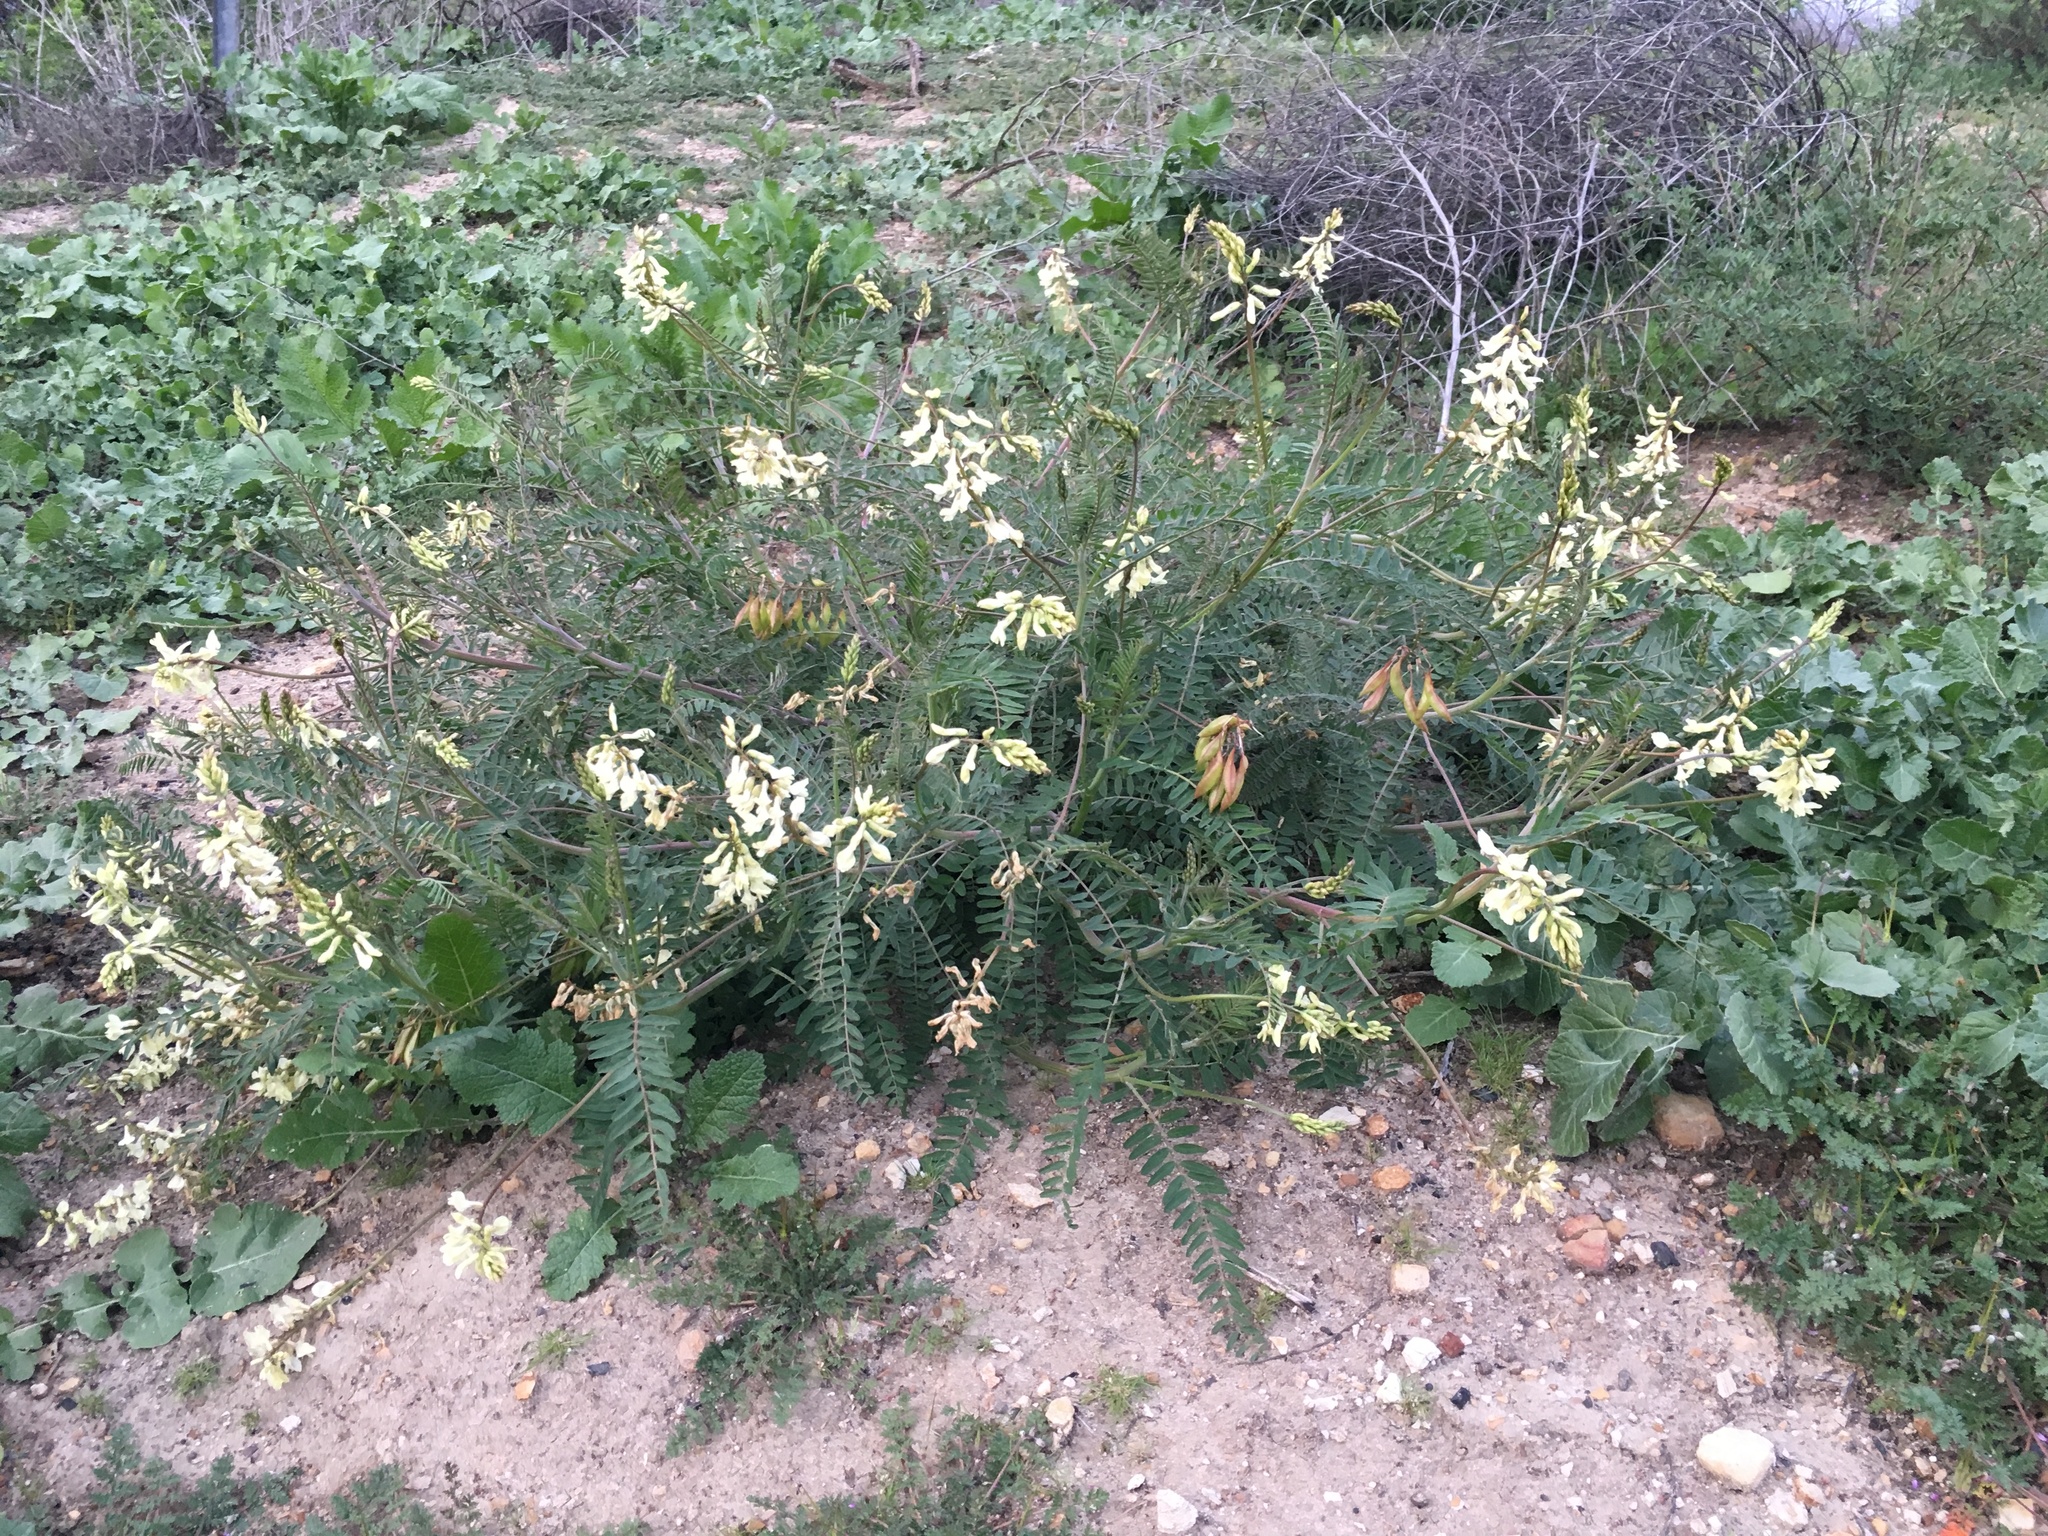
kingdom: Plantae
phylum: Tracheophyta
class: Magnoliopsida
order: Fabales
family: Fabaceae
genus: Astragalus
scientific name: Astragalus trichopodus
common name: Santa barbara milk-vetch
